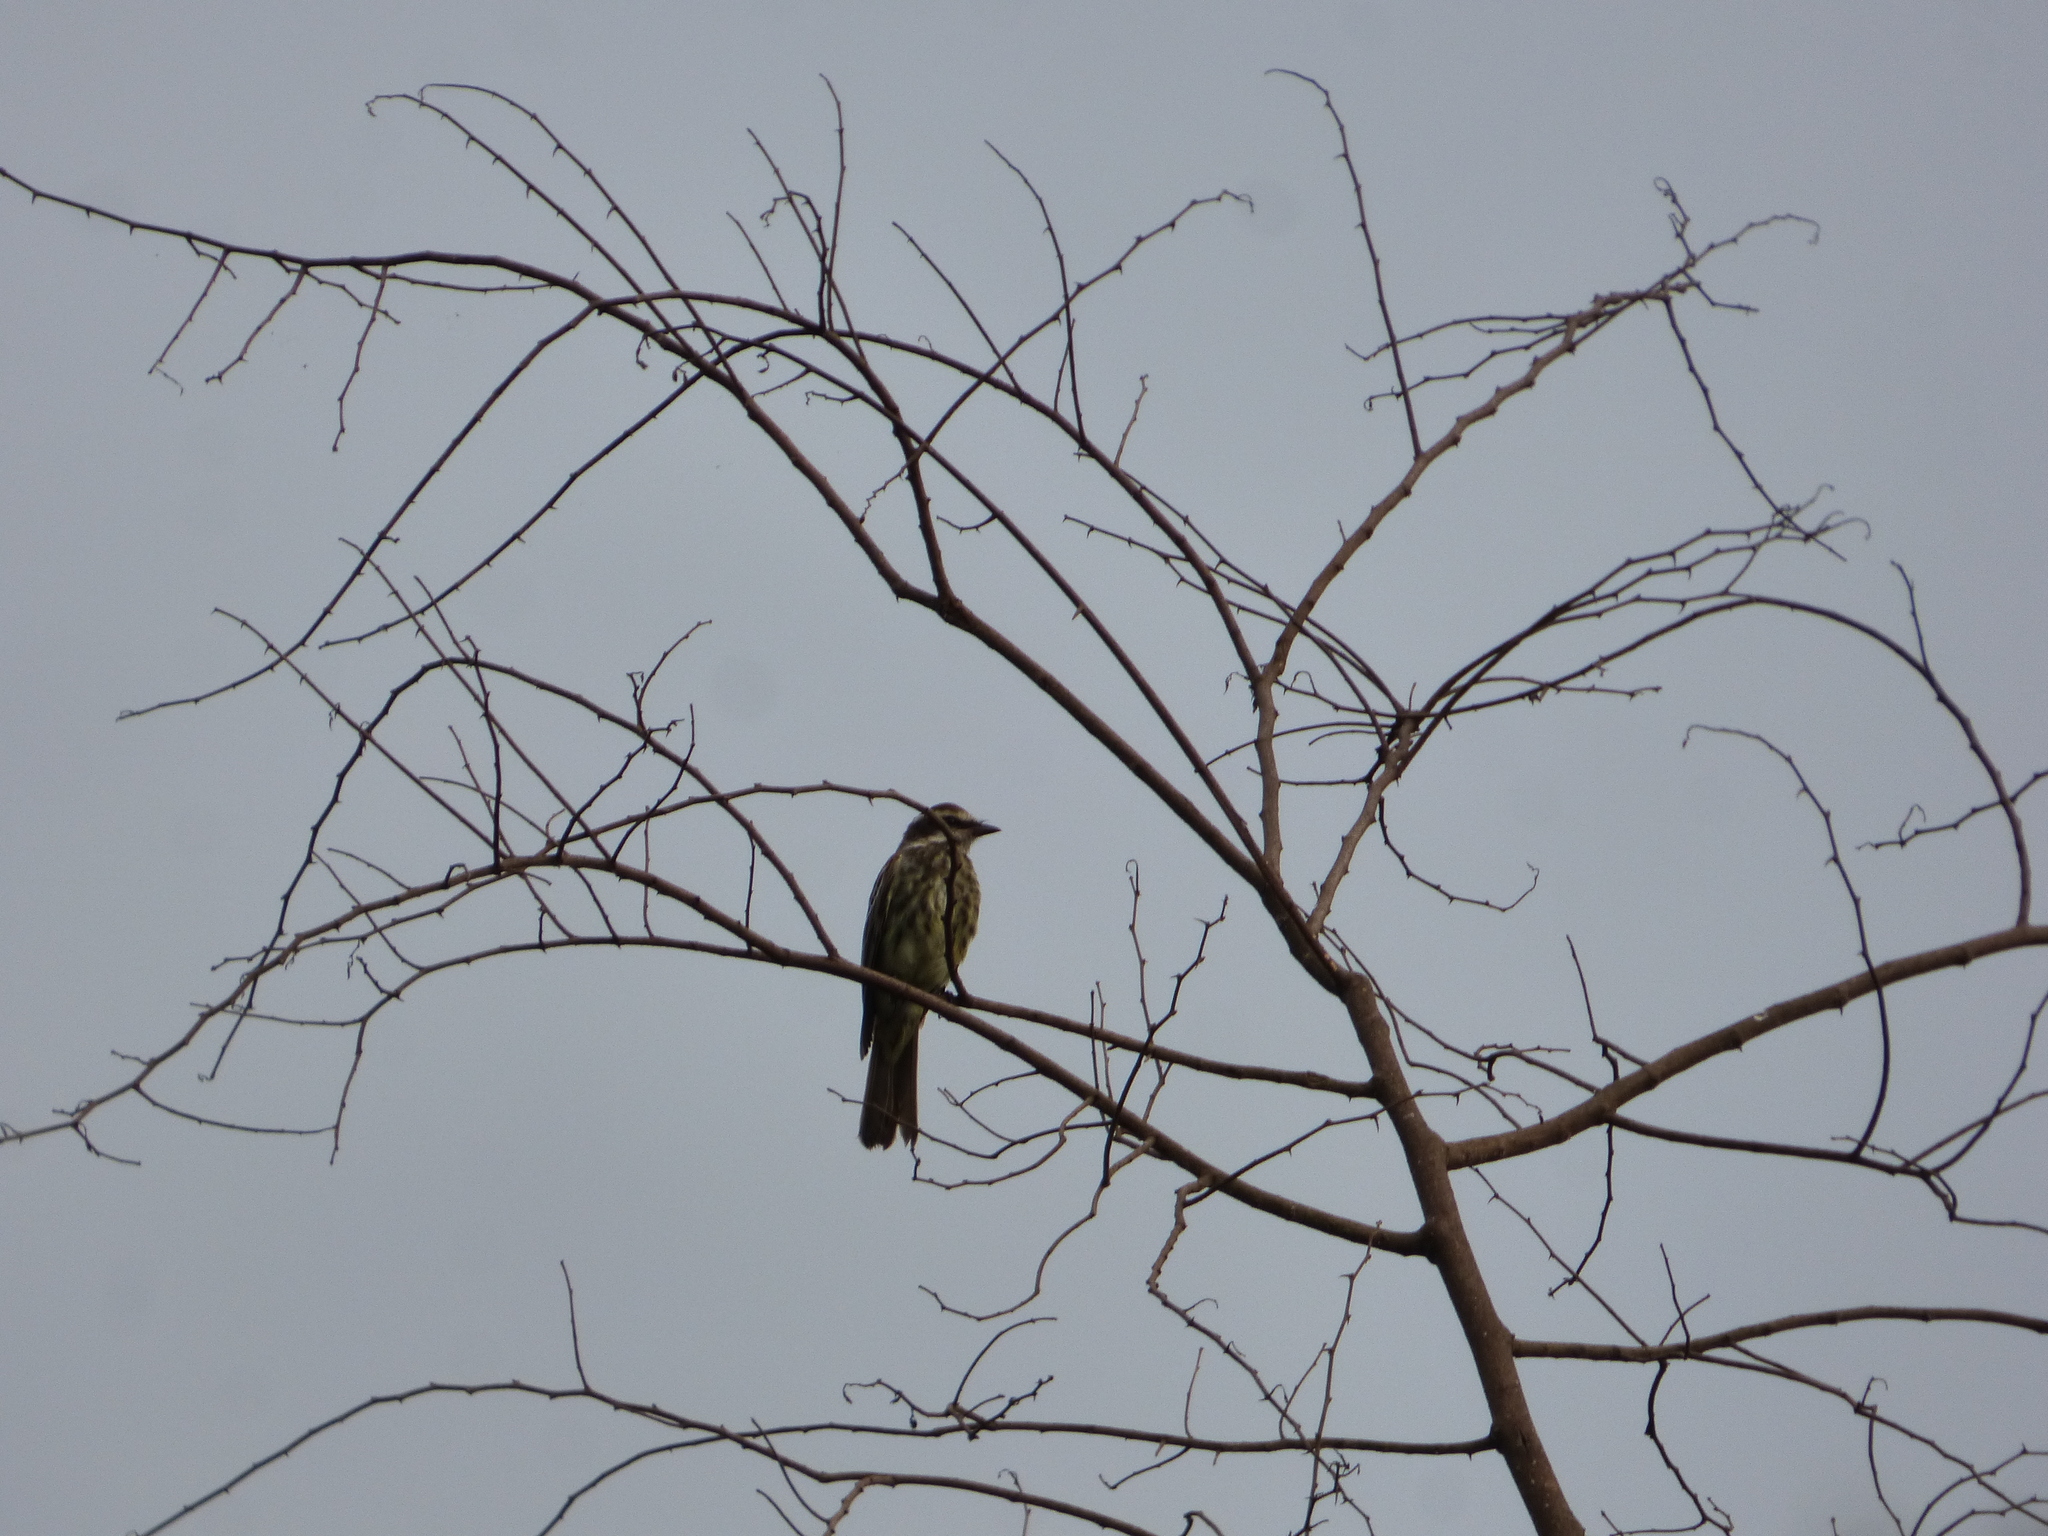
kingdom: Animalia
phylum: Chordata
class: Aves
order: Passeriformes
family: Tyrannidae
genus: Empidonomus
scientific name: Empidonomus varius
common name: Variegated flycatcher
